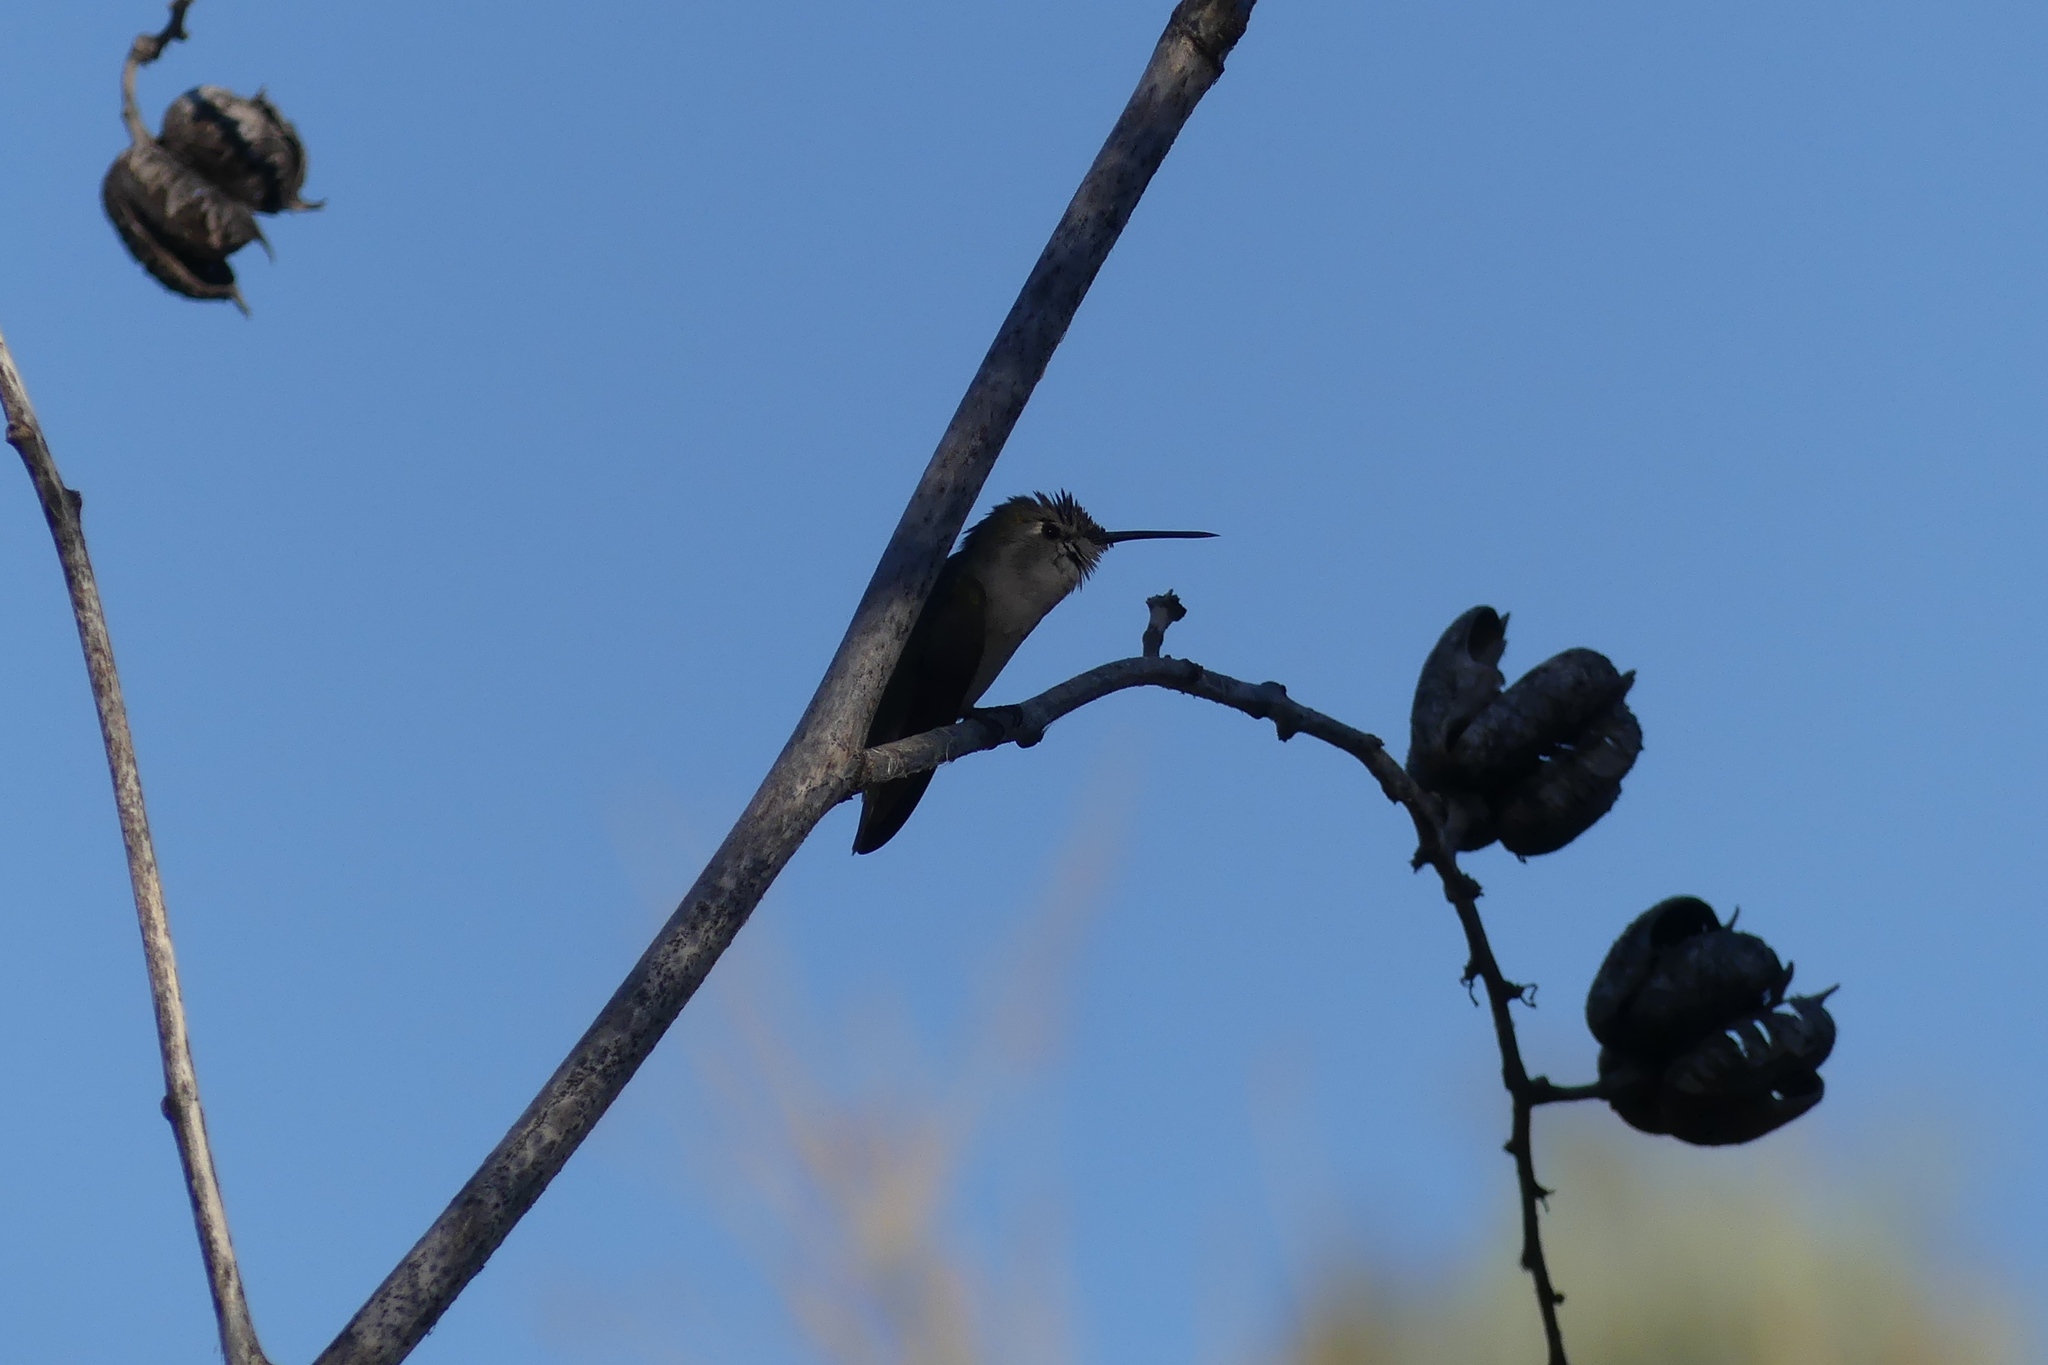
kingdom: Animalia
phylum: Chordata
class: Aves
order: Apodiformes
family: Trochilidae
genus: Calypte
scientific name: Calypte costae
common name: Costa's hummingbird
